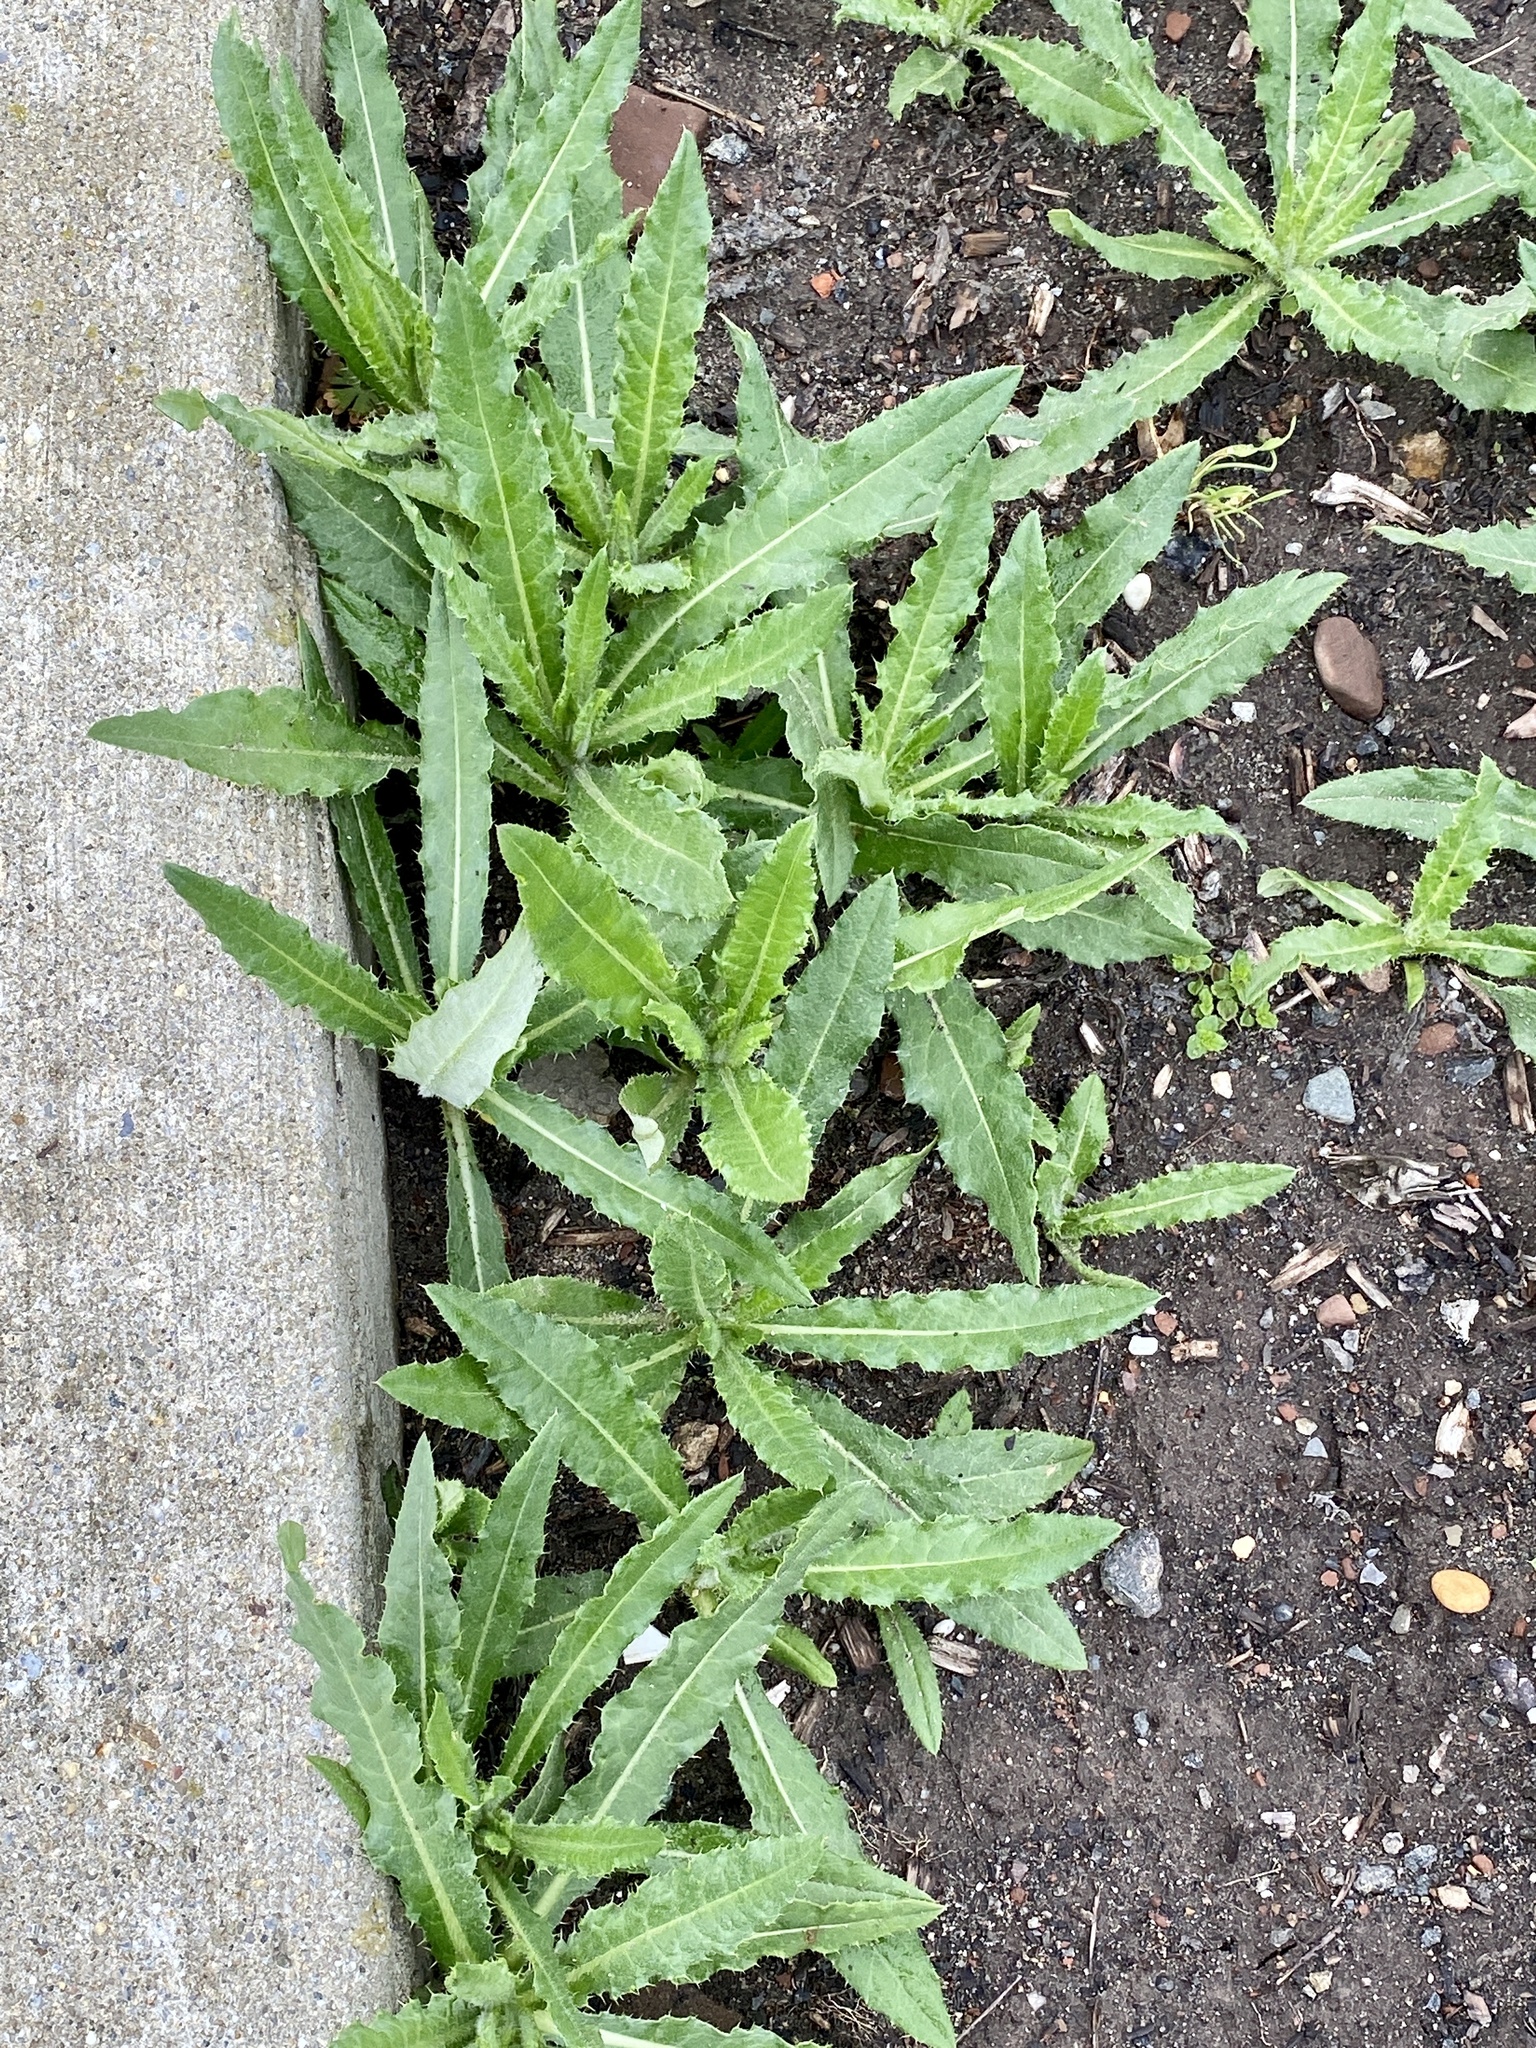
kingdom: Plantae
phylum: Tracheophyta
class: Magnoliopsida
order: Asterales
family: Asteraceae
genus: Cirsium
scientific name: Cirsium arvense
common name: Creeping thistle
